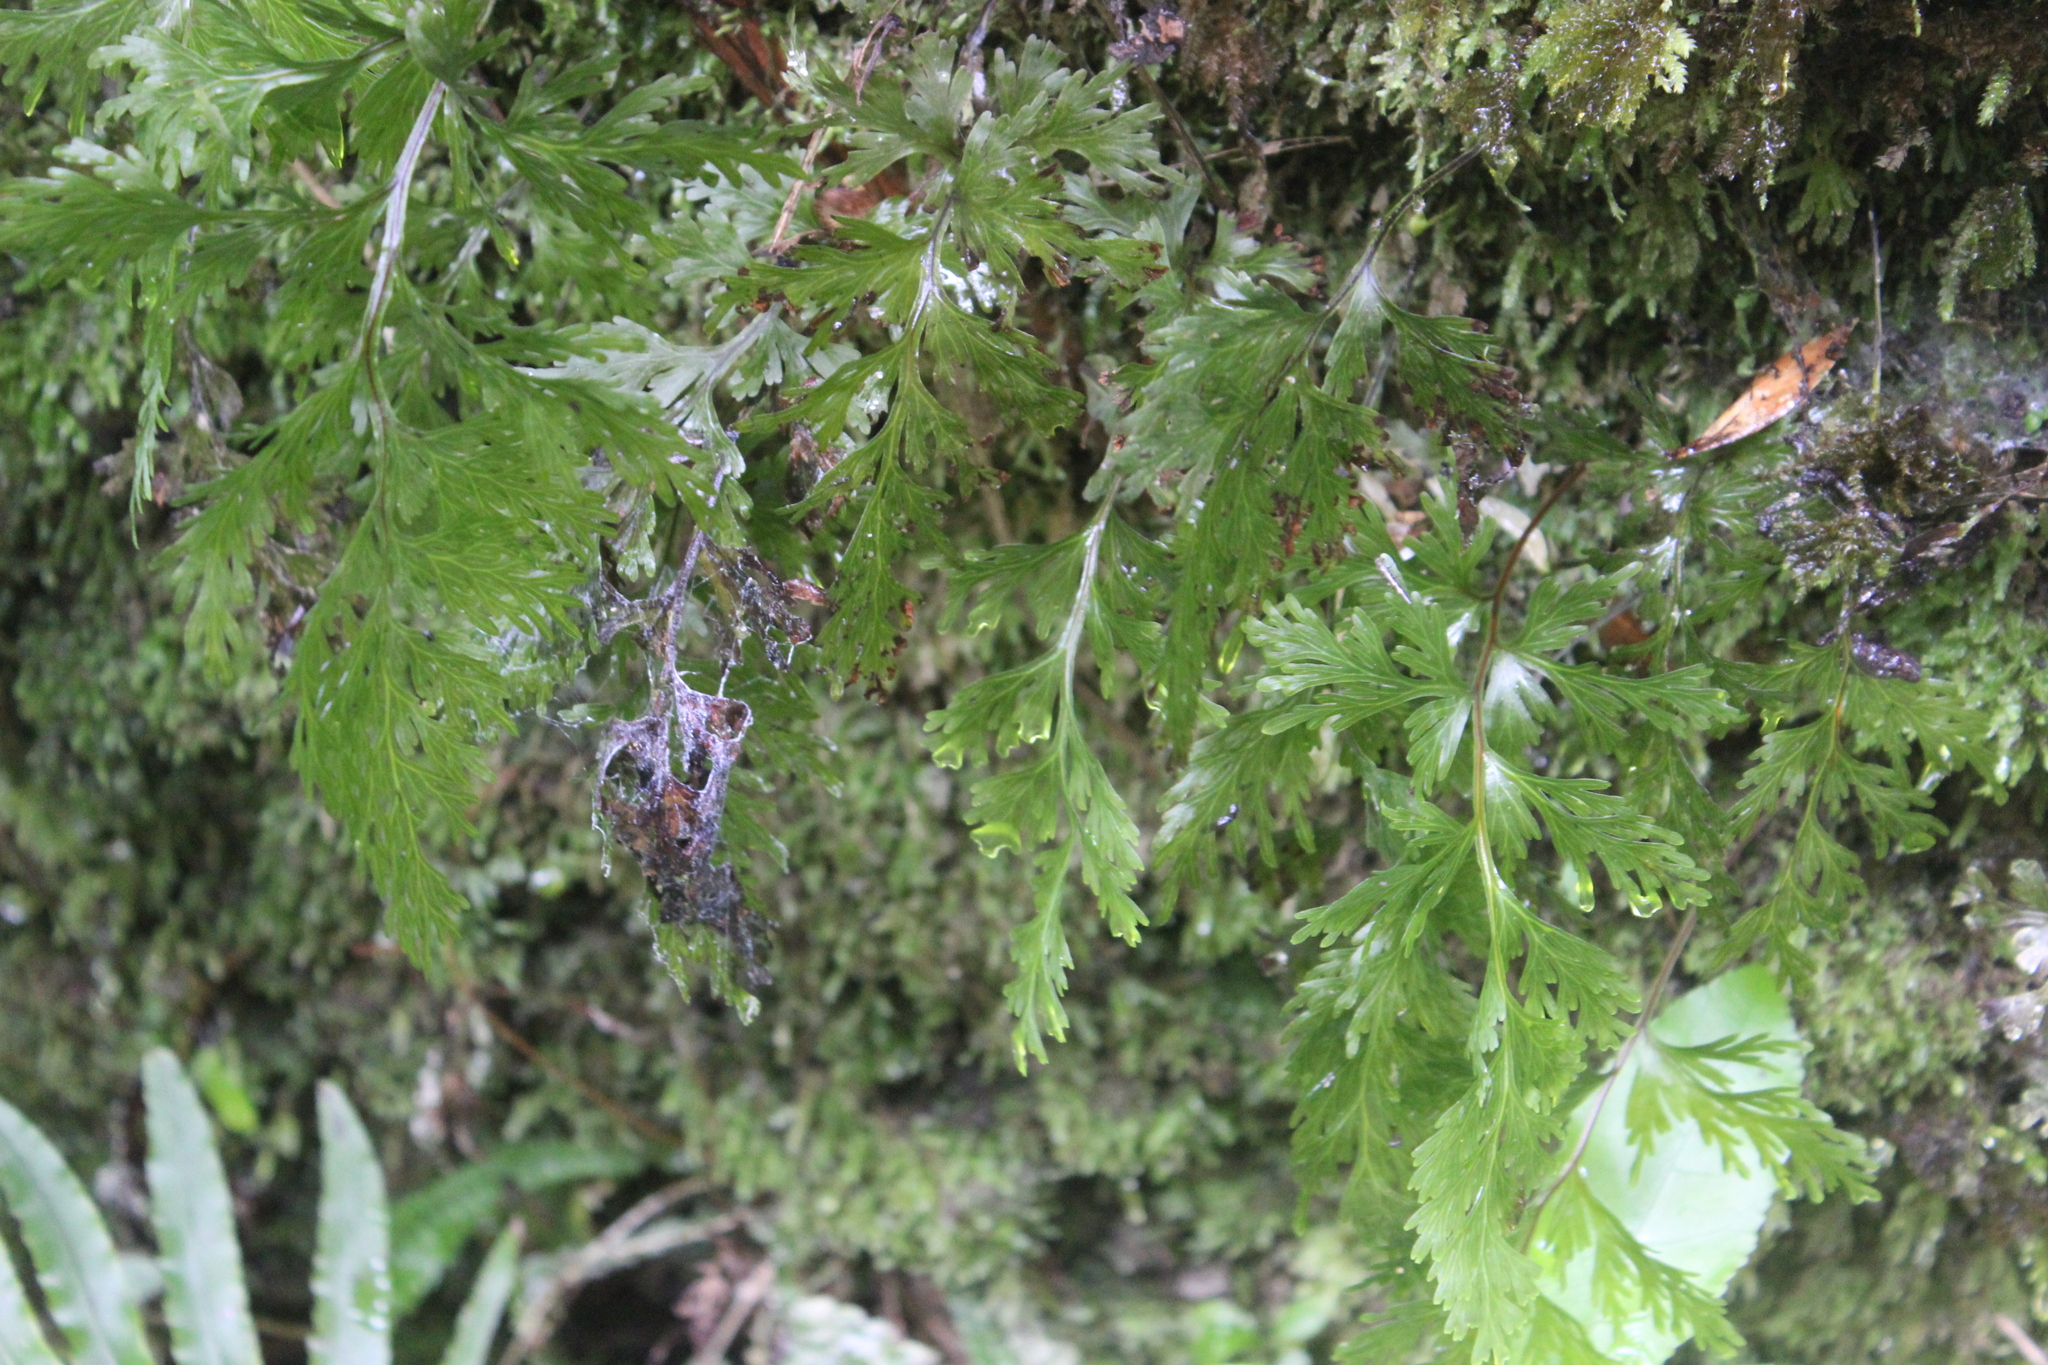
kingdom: Plantae
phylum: Tracheophyta
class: Polypodiopsida
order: Hymenophyllales
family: Hymenophyllaceae
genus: Hymenophyllum
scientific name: Hymenophyllum dilatatum
